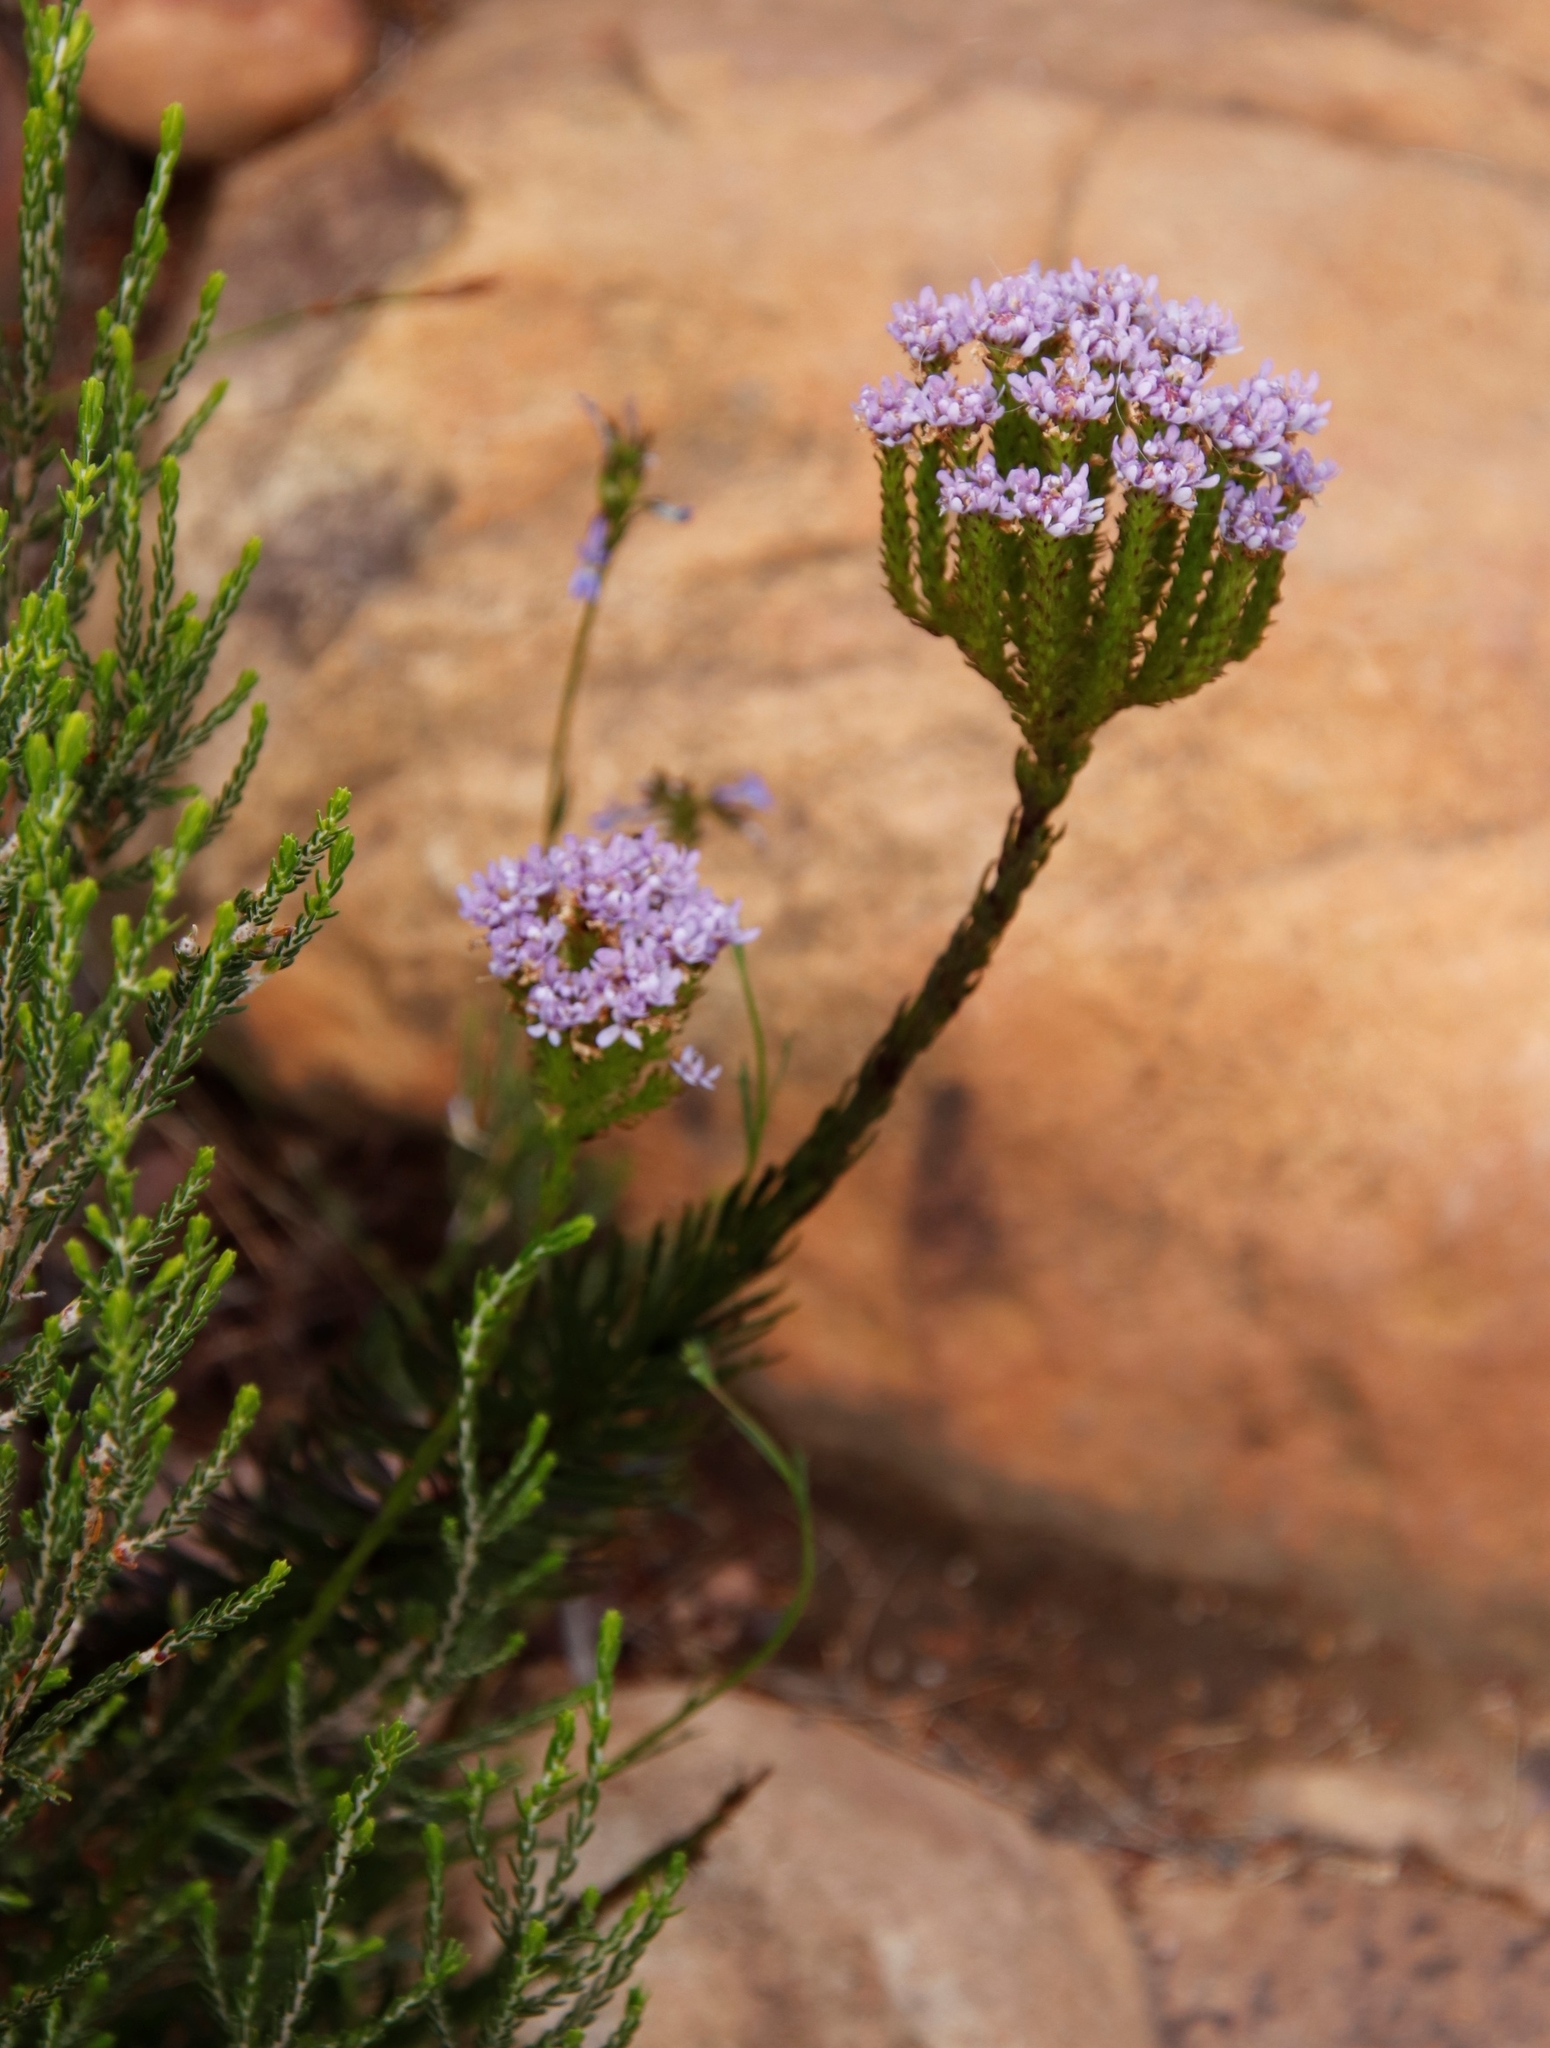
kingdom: Plantae
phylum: Tracheophyta
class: Magnoliopsida
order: Lamiales
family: Scrophulariaceae
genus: Pseudoselago
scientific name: Pseudoselago spuria
